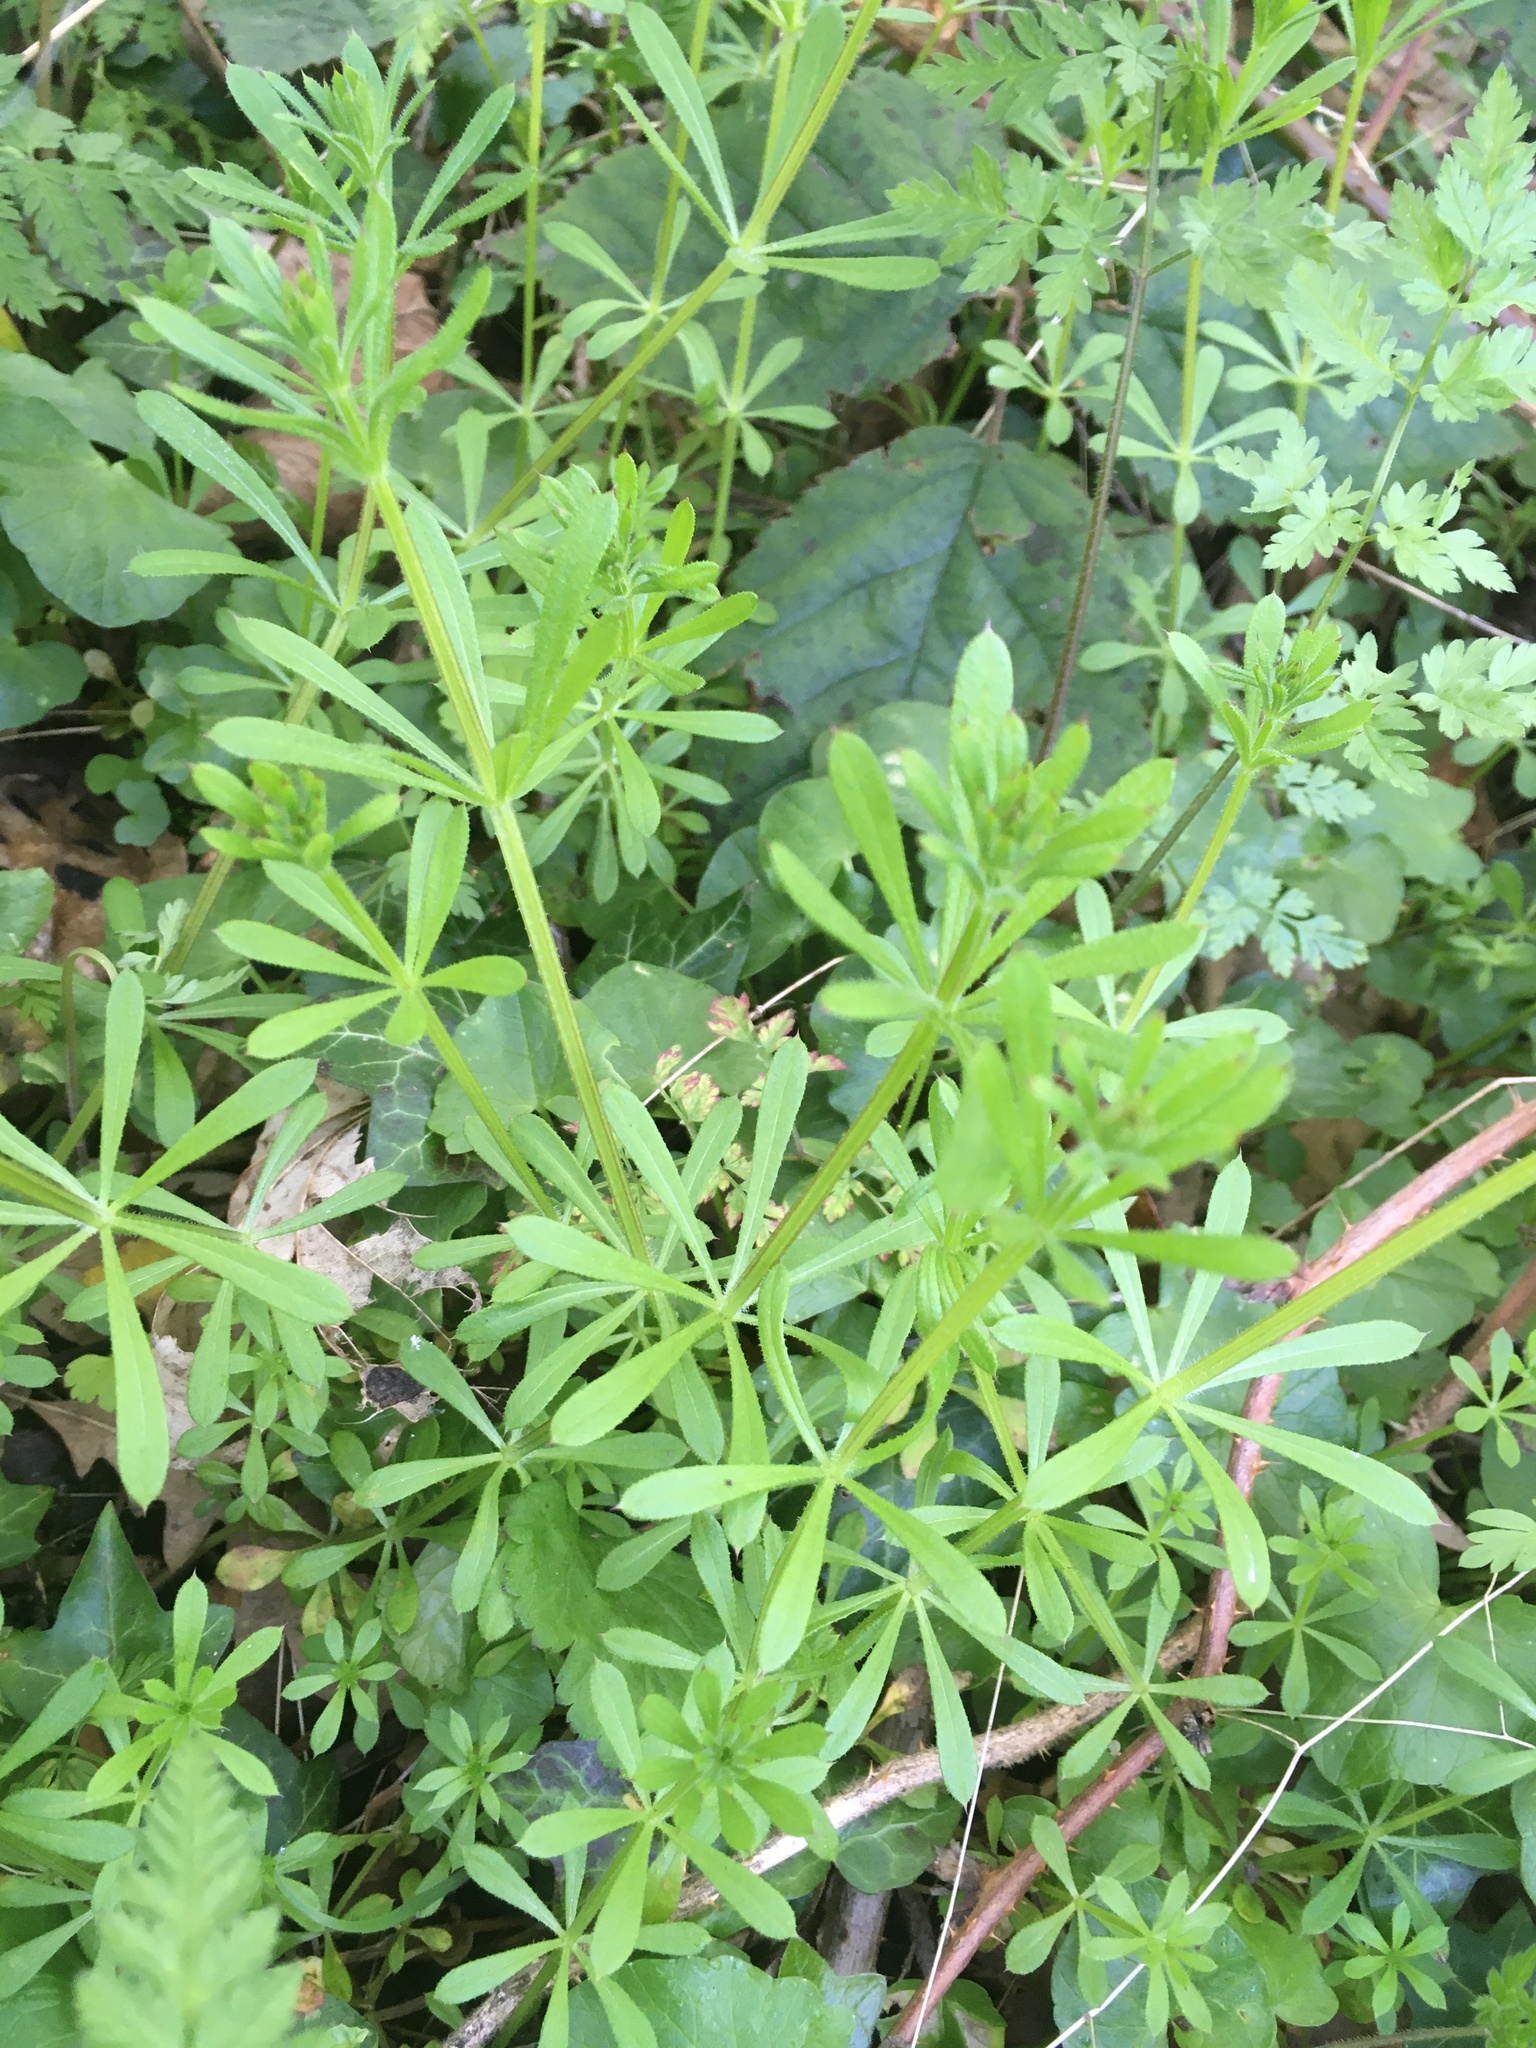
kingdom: Plantae
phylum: Tracheophyta
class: Magnoliopsida
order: Gentianales
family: Rubiaceae
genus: Galium
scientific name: Galium aparine
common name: Cleavers
